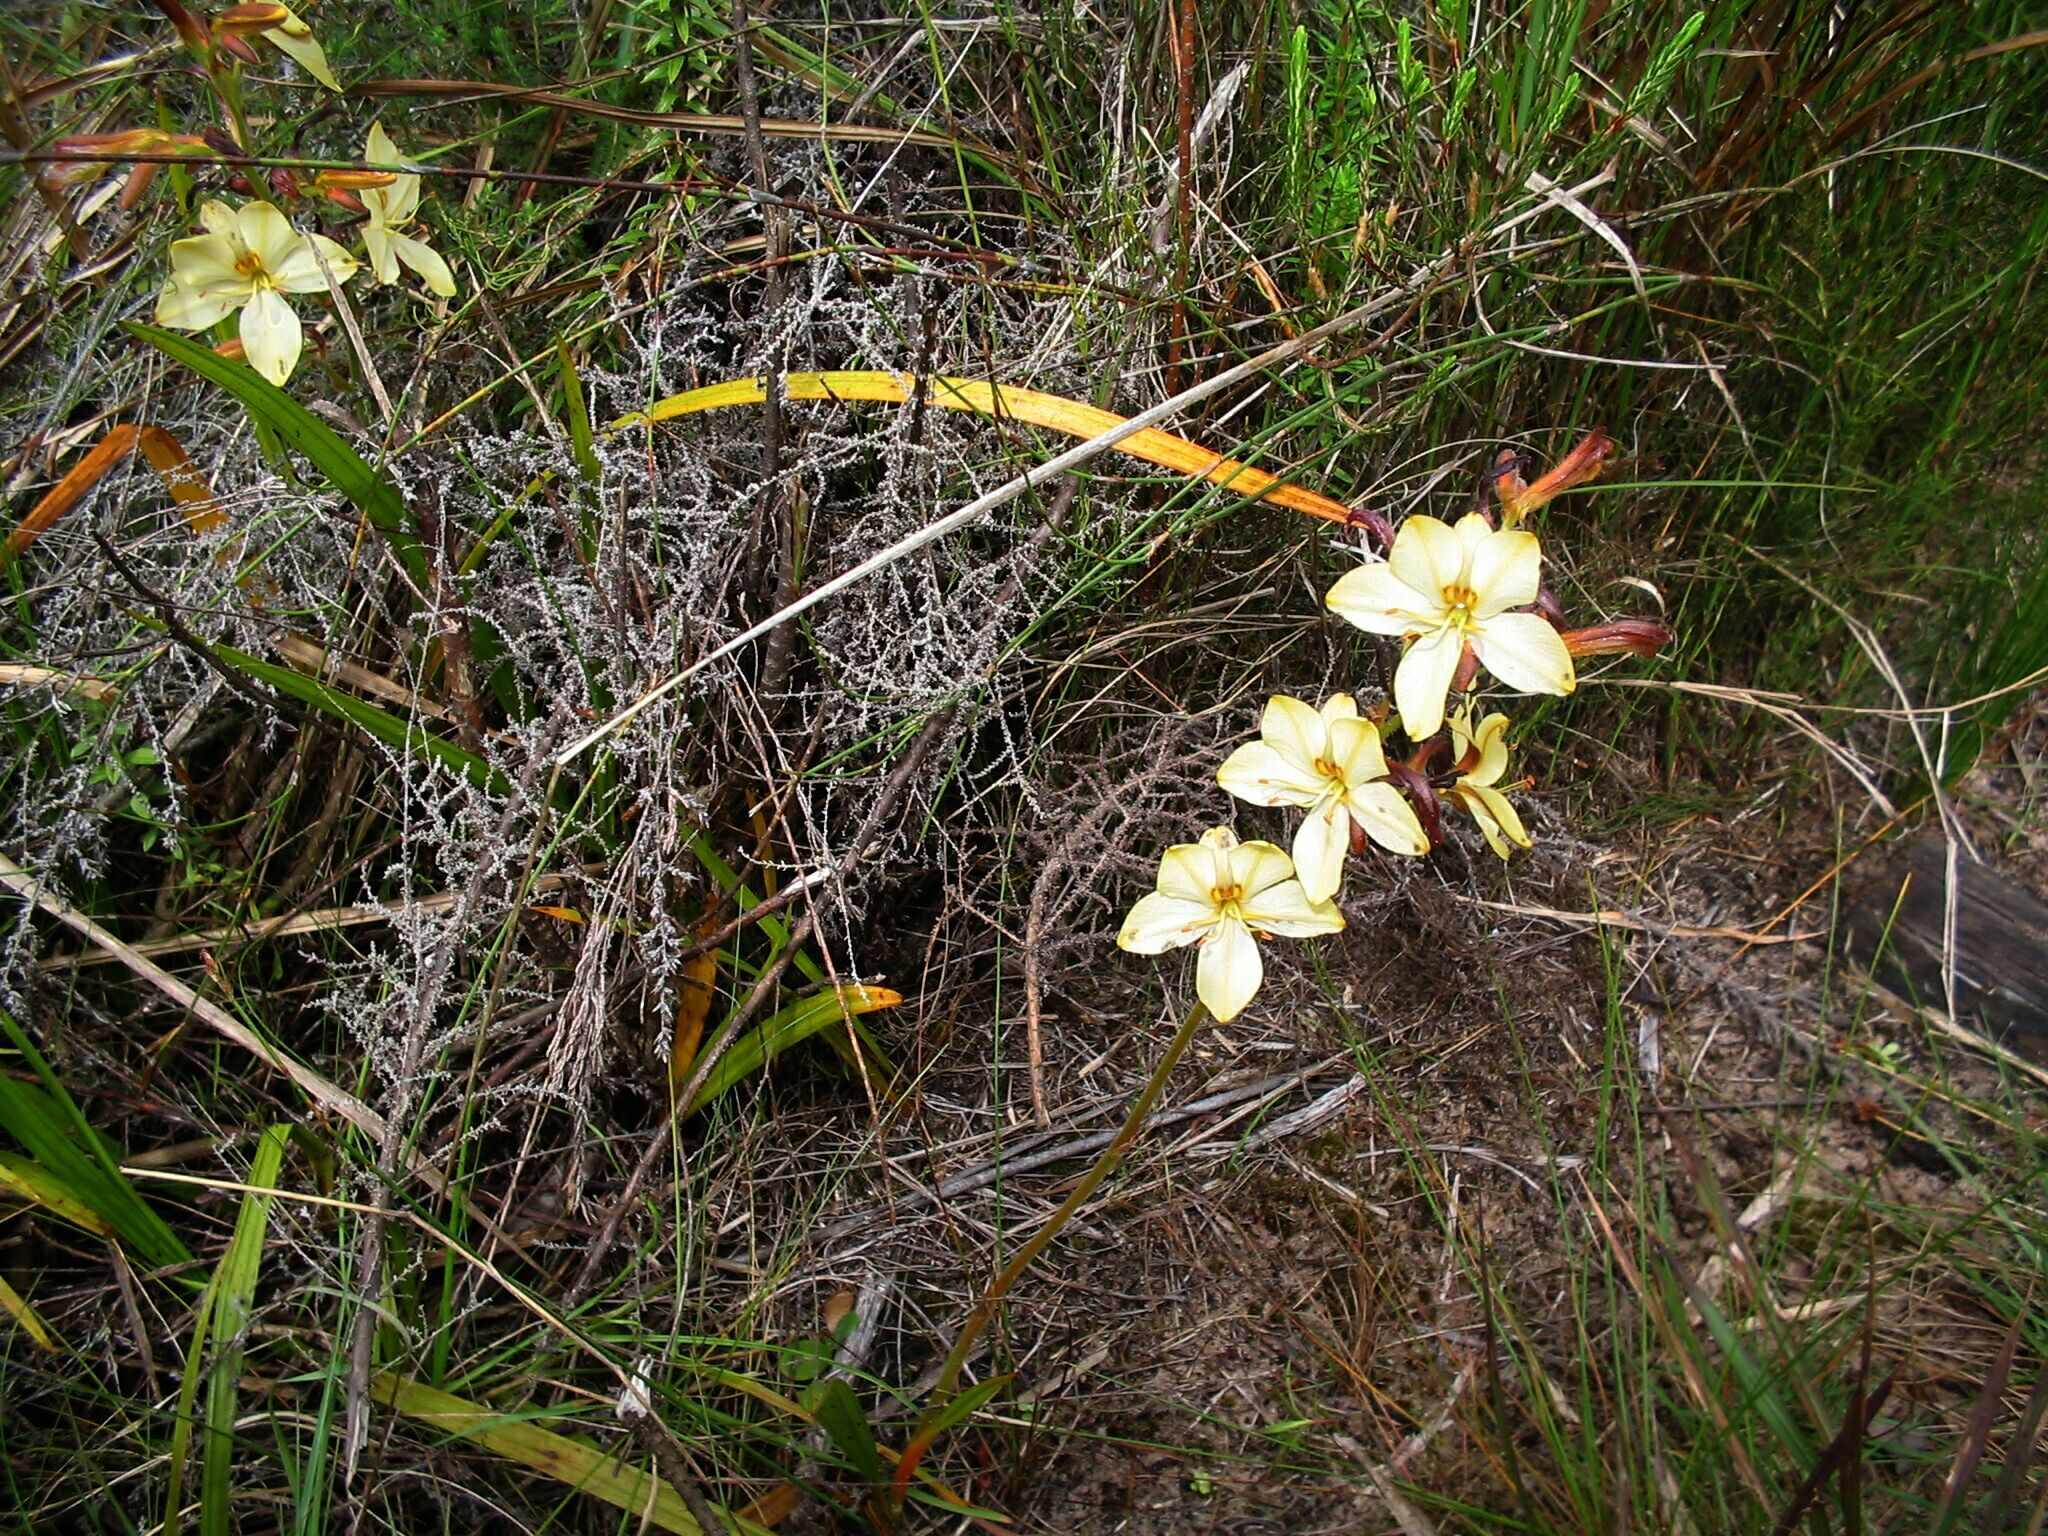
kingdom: Plantae
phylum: Tracheophyta
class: Liliopsida
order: Commelinales
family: Haemodoraceae
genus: Wachendorfia
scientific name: Wachendorfia paniculata
